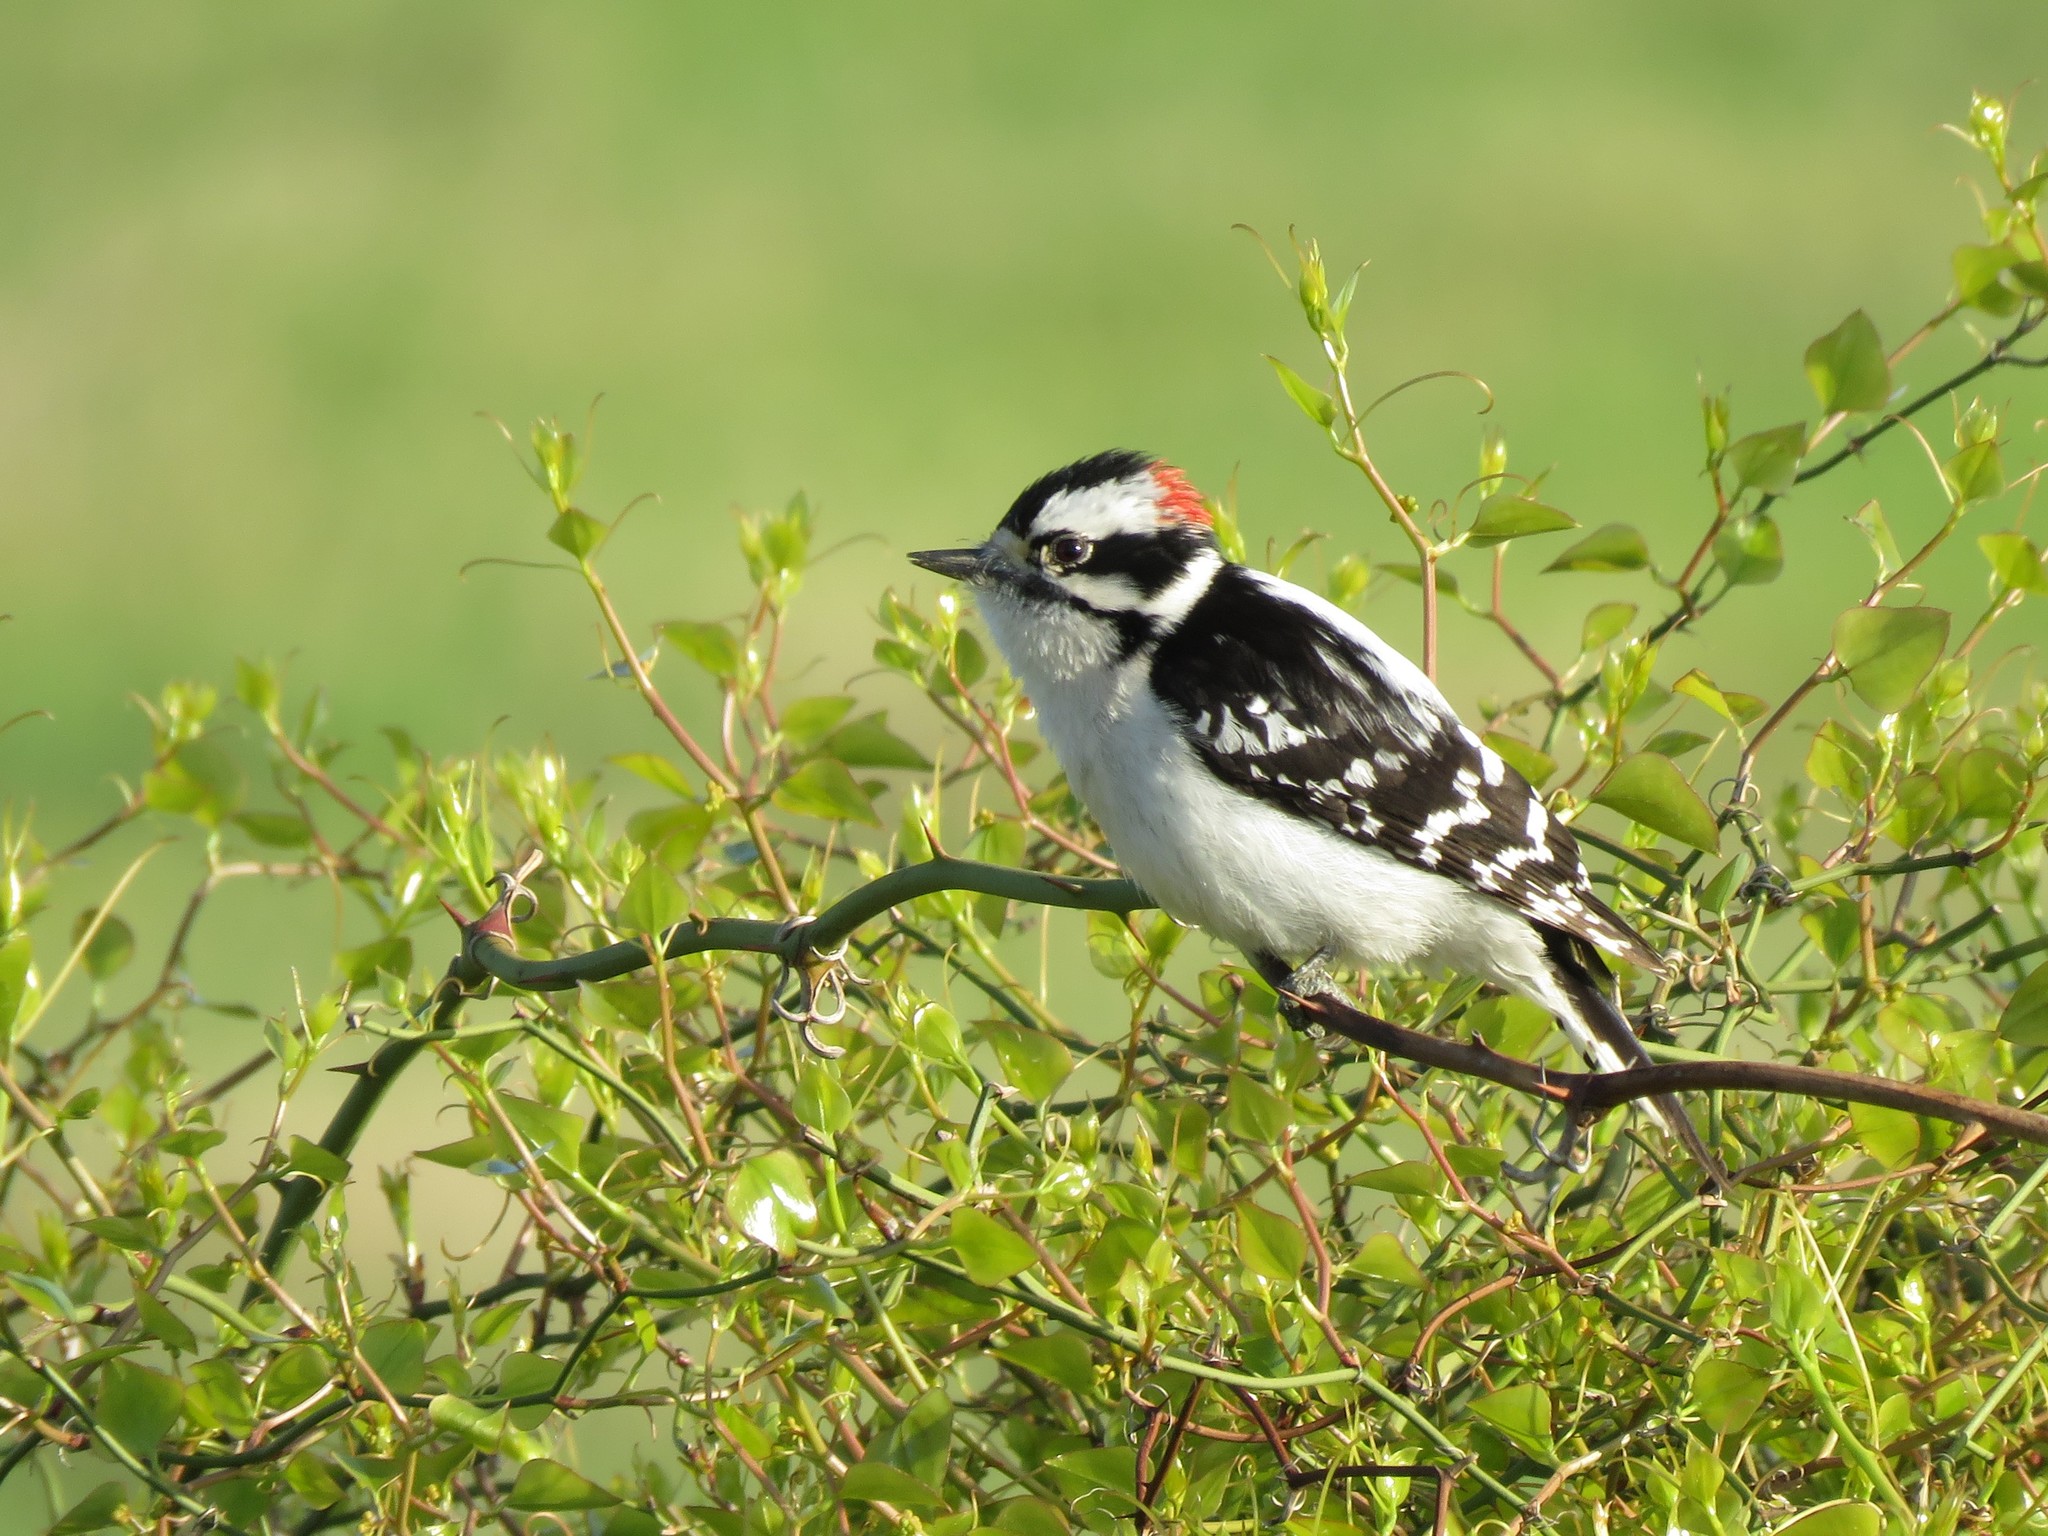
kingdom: Animalia
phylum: Chordata
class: Aves
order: Piciformes
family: Picidae
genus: Dryobates
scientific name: Dryobates pubescens
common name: Downy woodpecker
